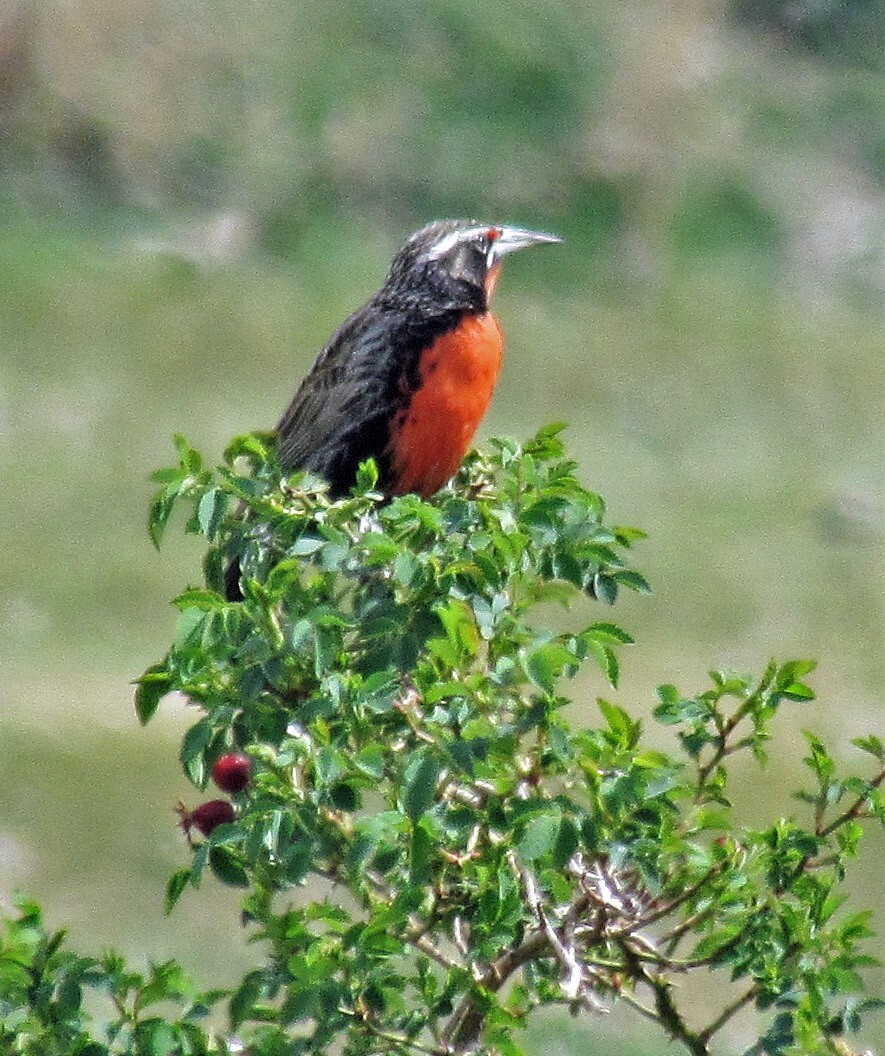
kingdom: Animalia
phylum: Chordata
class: Aves
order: Passeriformes
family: Icteridae
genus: Sturnella
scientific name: Sturnella loyca
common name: Long-tailed meadowlark
